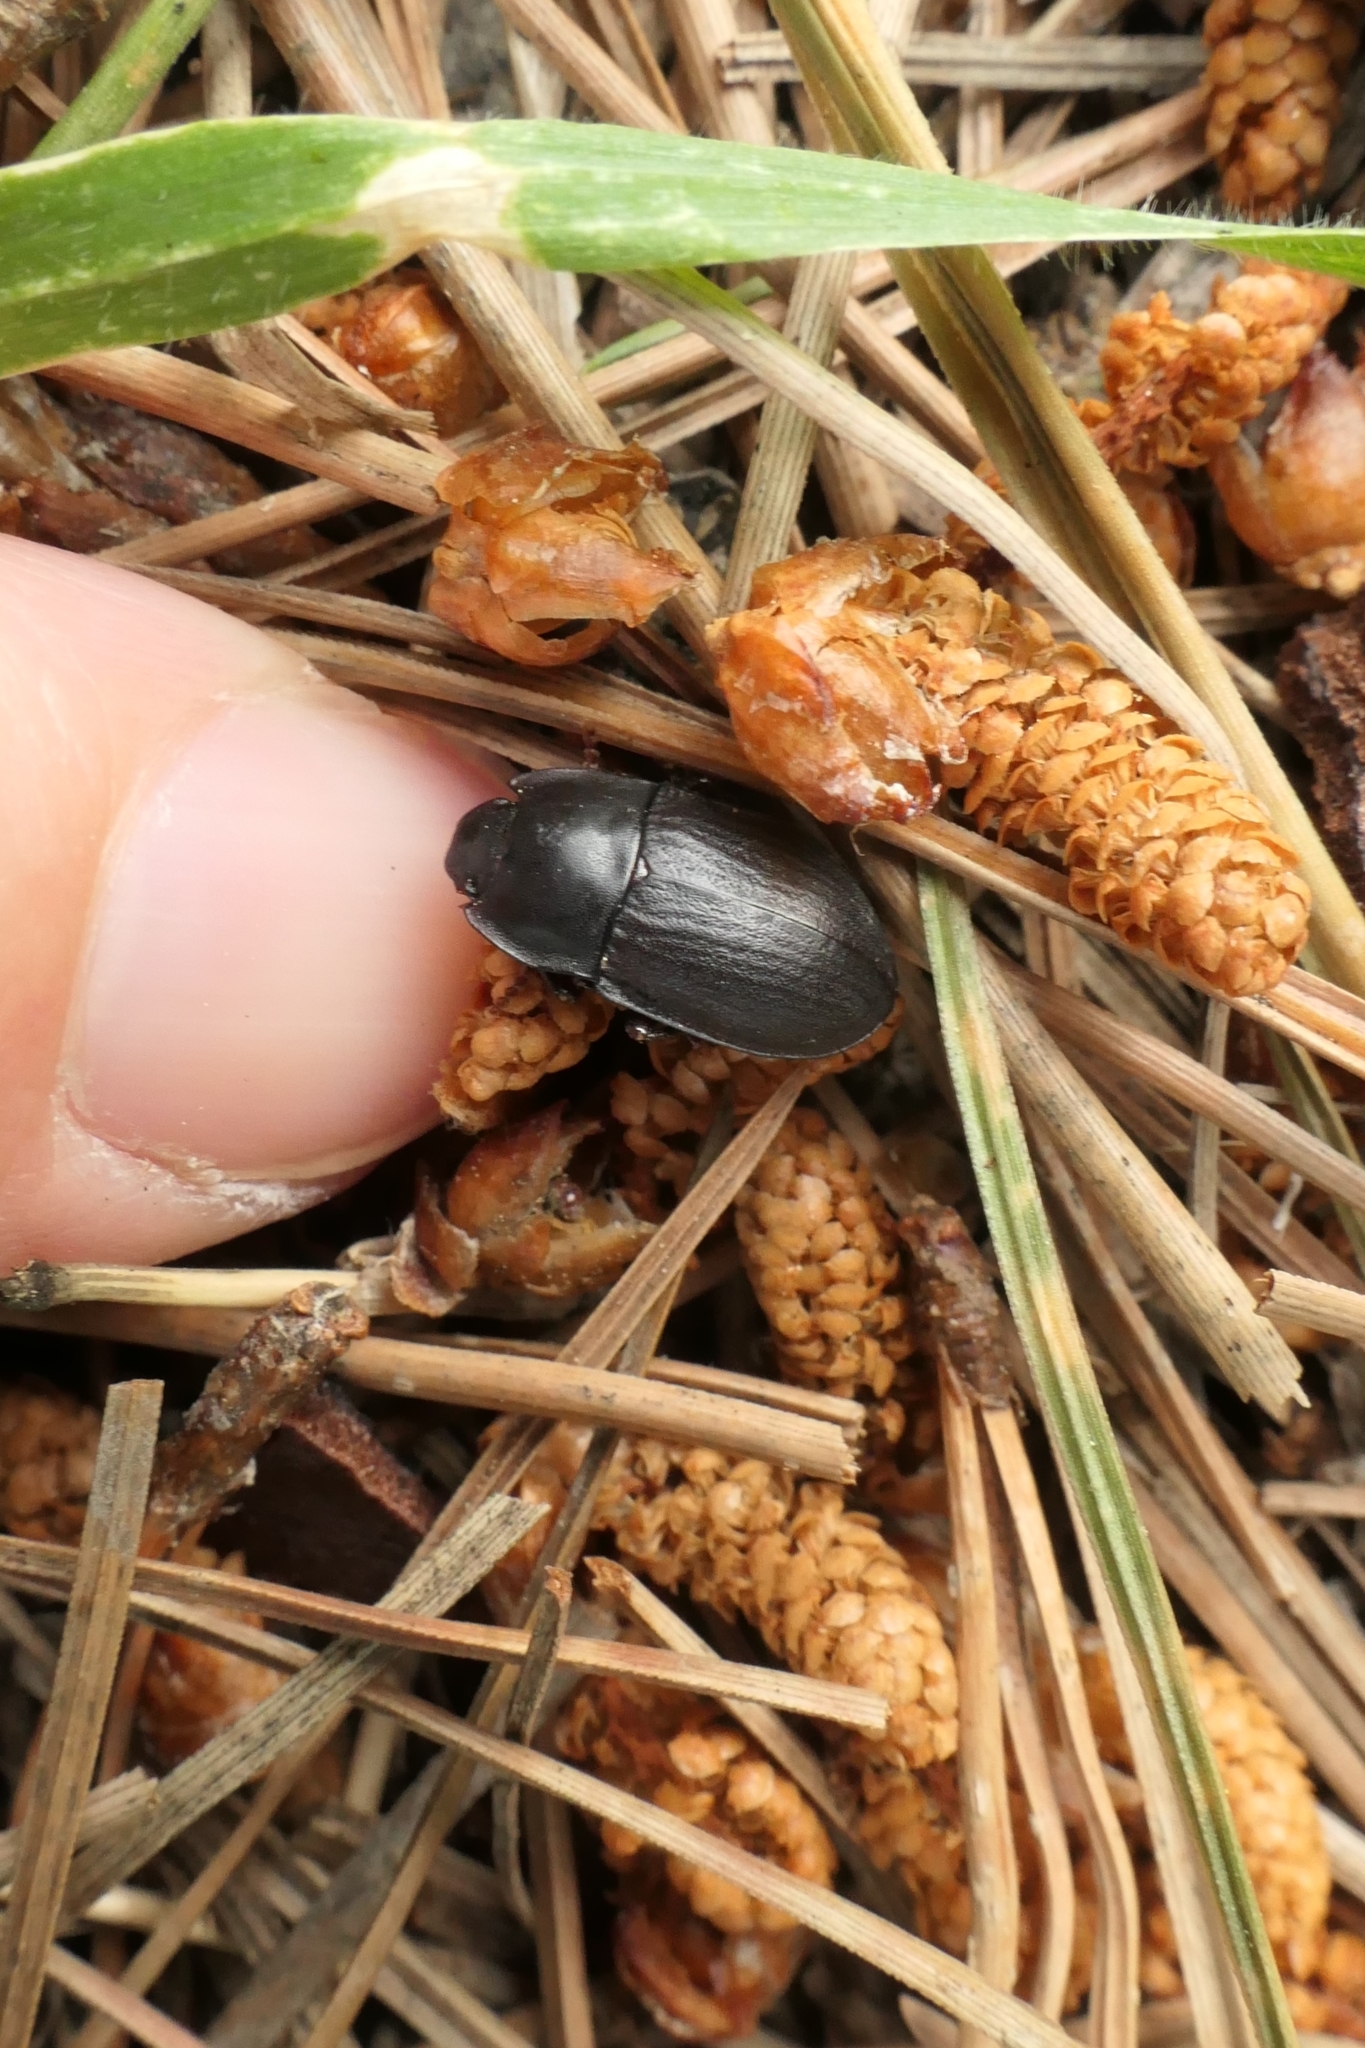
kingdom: Animalia
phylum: Arthropoda
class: Insecta
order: Coleoptera
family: Tenebrionidae
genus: Mimopeus
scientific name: Mimopeus
